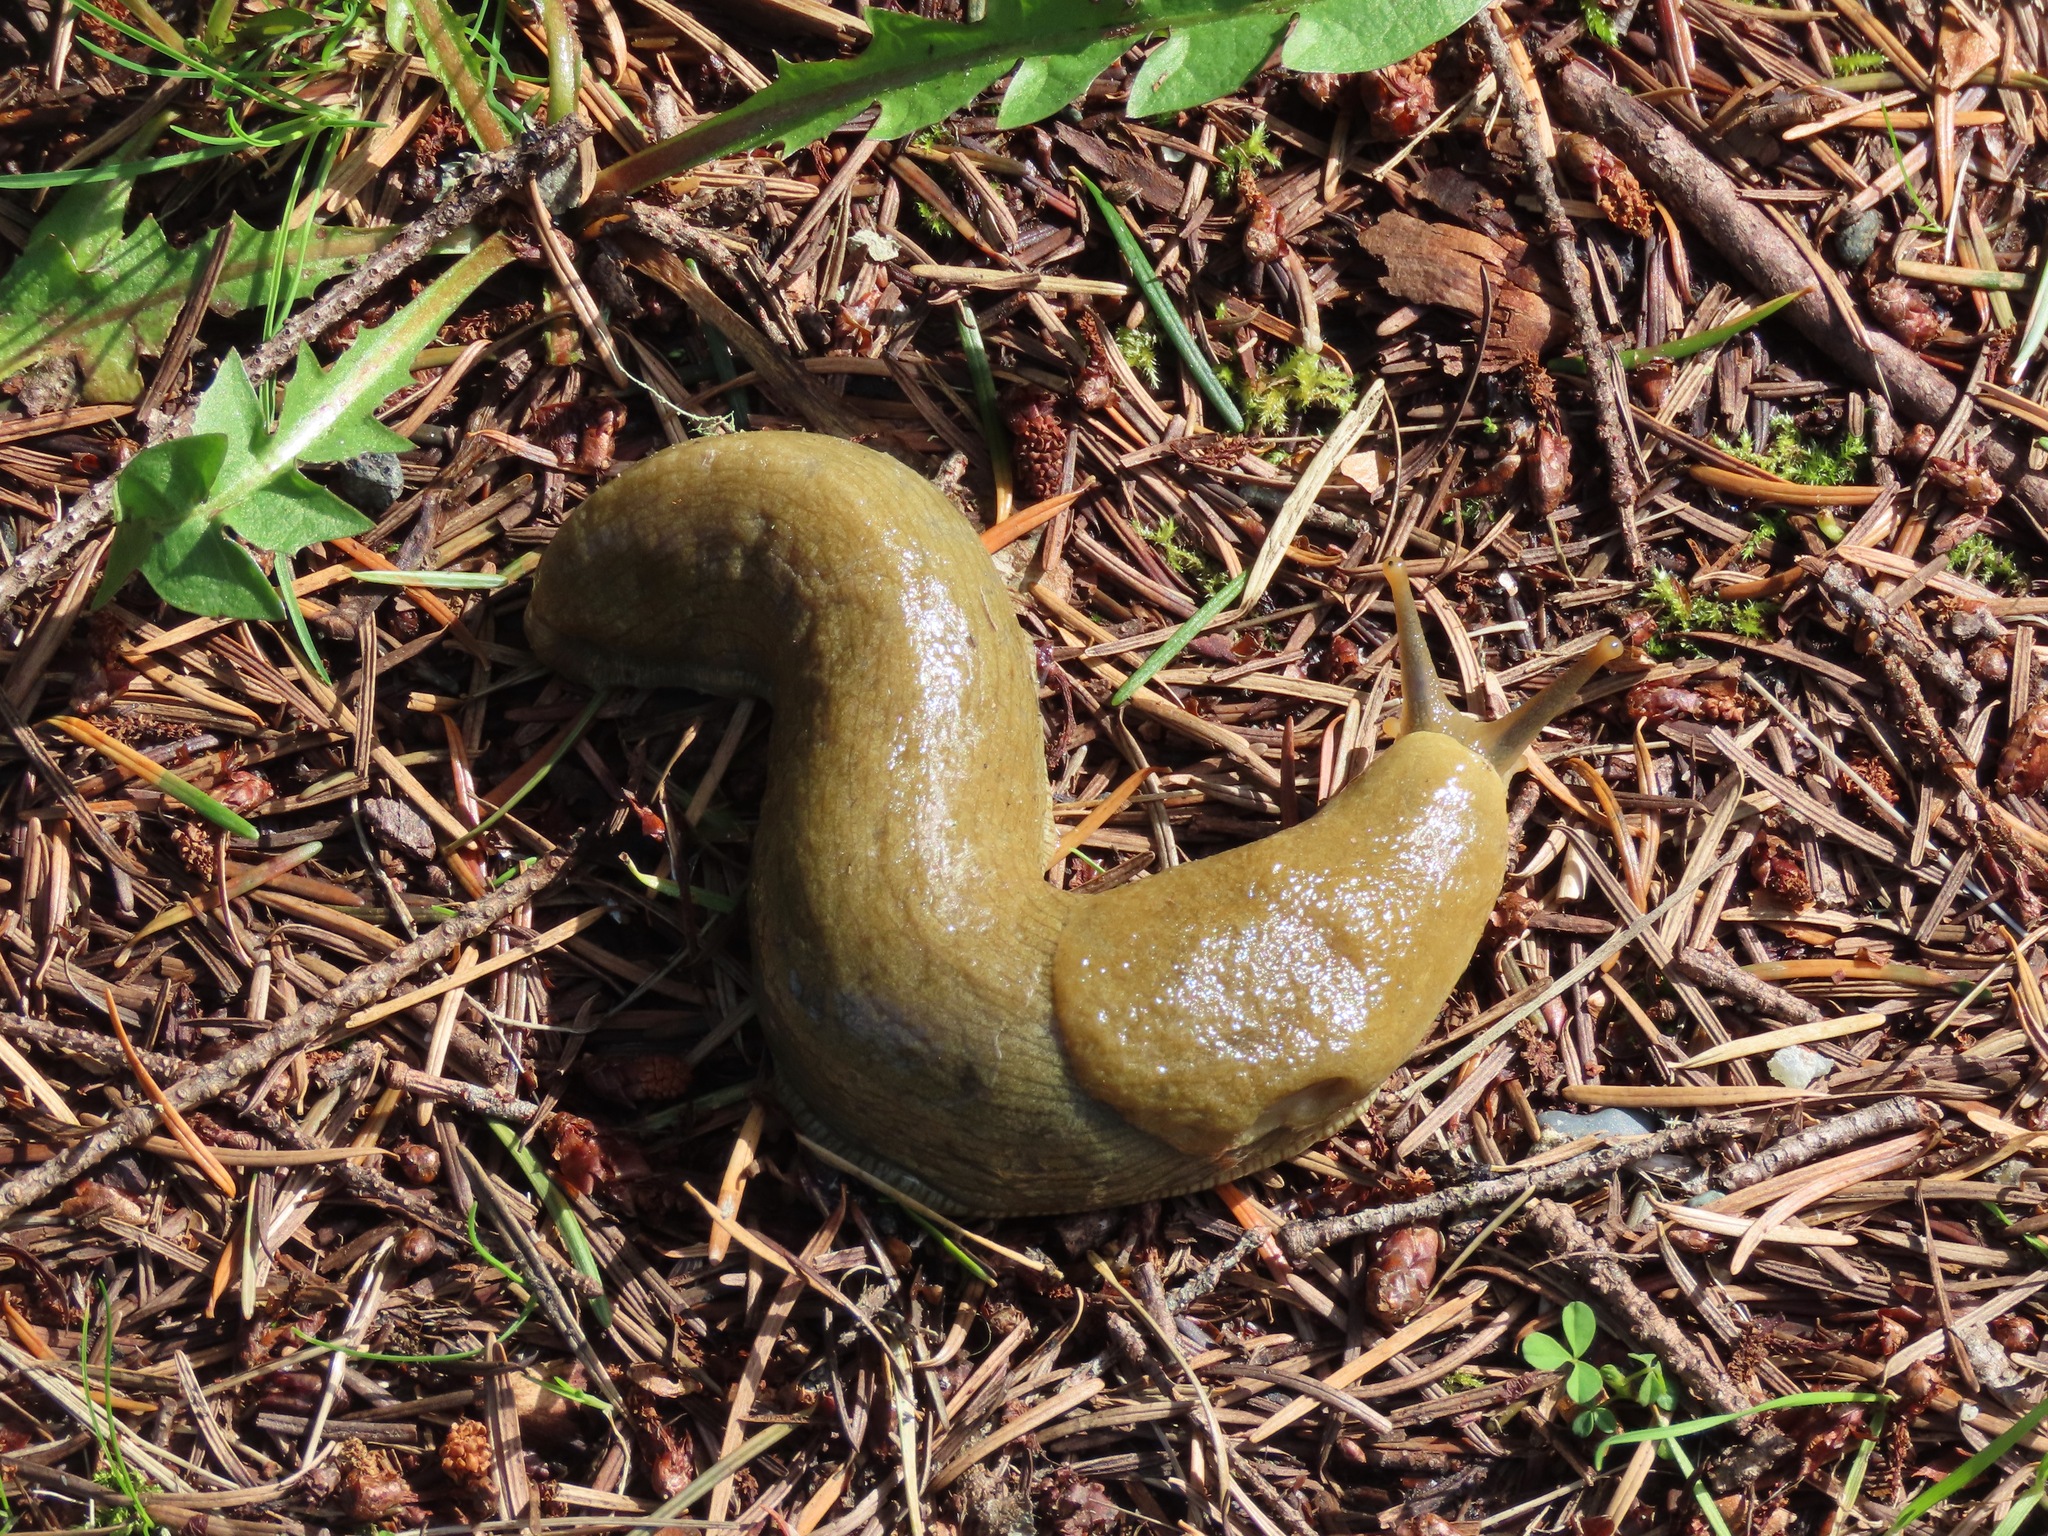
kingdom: Animalia
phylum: Mollusca
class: Gastropoda
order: Stylommatophora
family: Ariolimacidae
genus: Ariolimax
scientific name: Ariolimax columbianus
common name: Pacific banana slug
